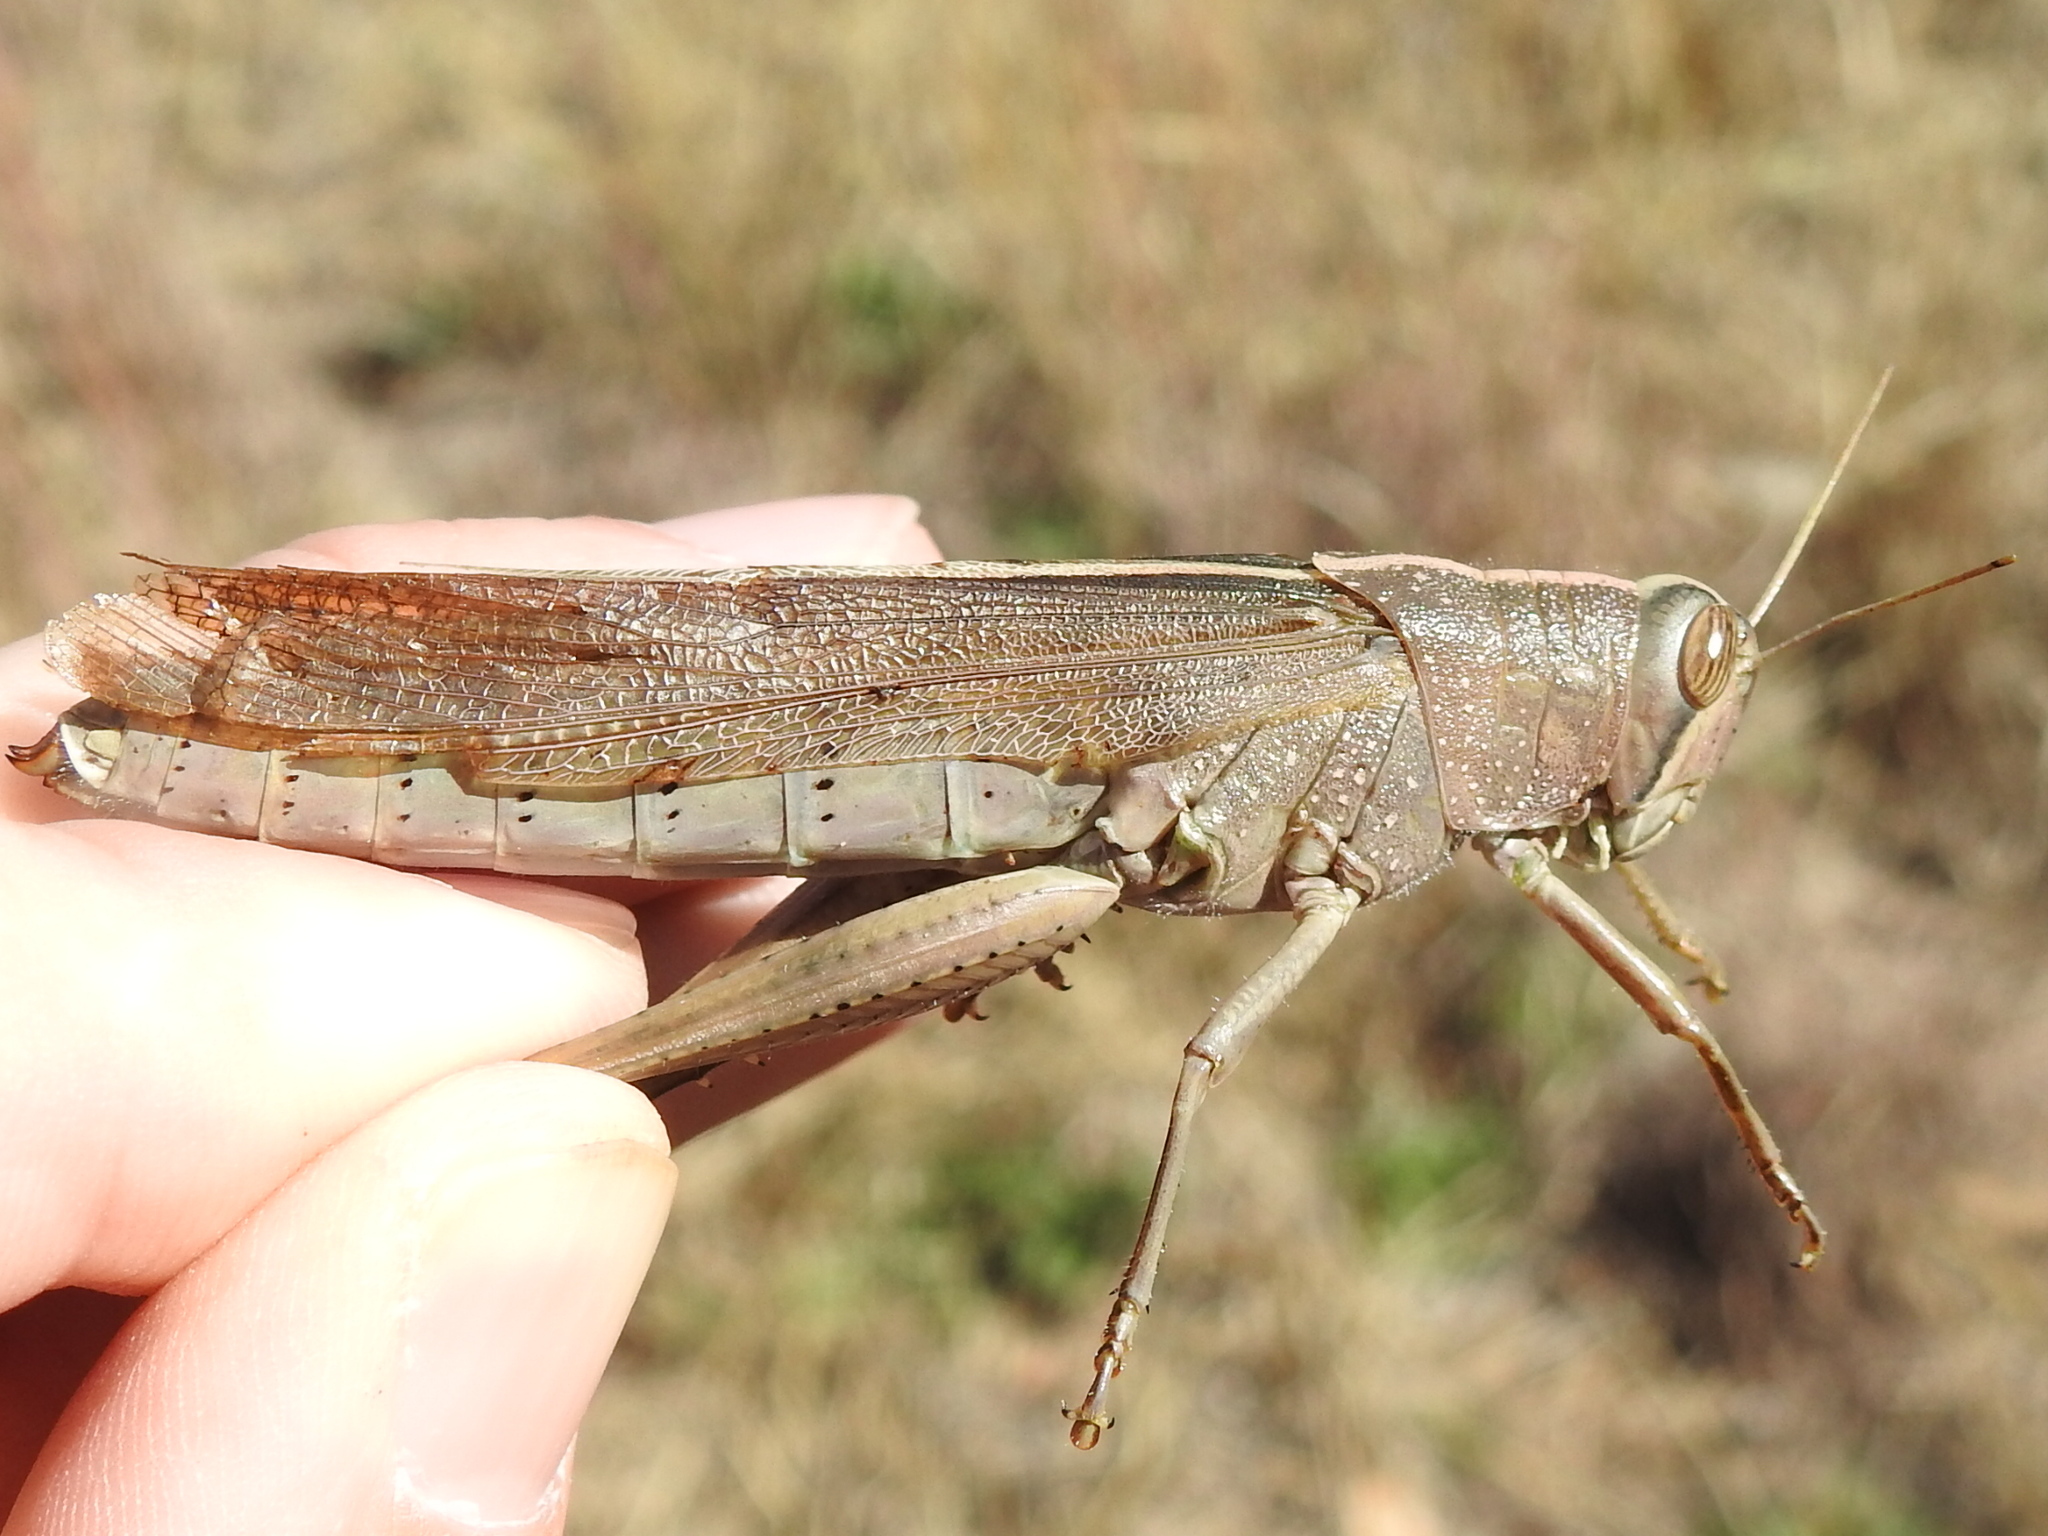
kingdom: Animalia
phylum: Arthropoda
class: Insecta
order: Orthoptera
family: Acrididae
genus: Schistocerca
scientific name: Schistocerca lineata
